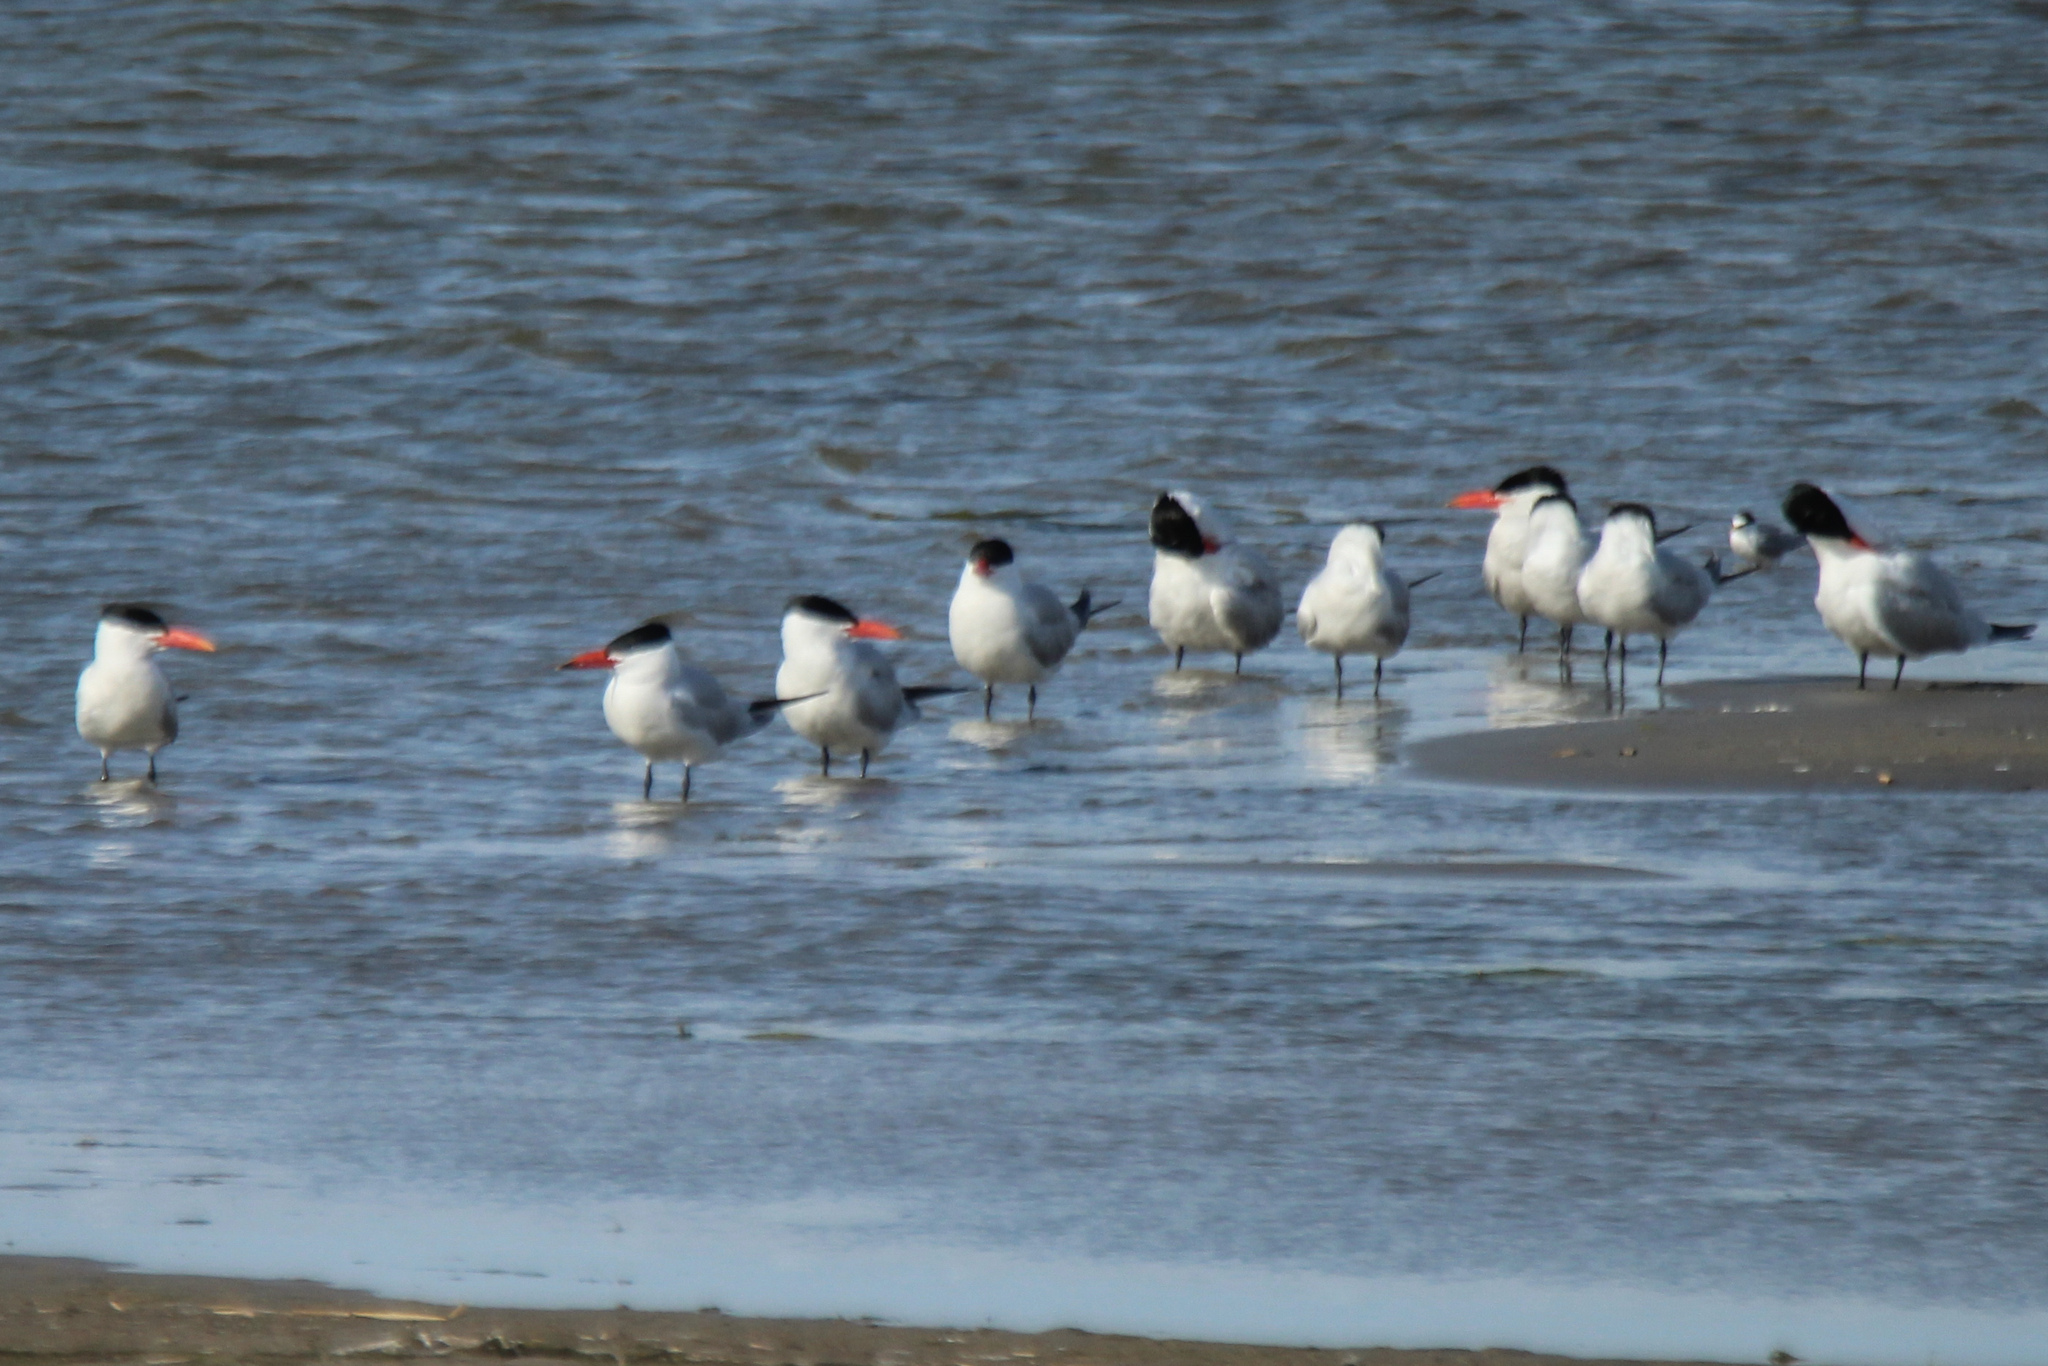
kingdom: Animalia
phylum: Chordata
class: Aves
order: Charadriiformes
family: Laridae
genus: Hydroprogne
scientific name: Hydroprogne caspia
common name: Caspian tern
